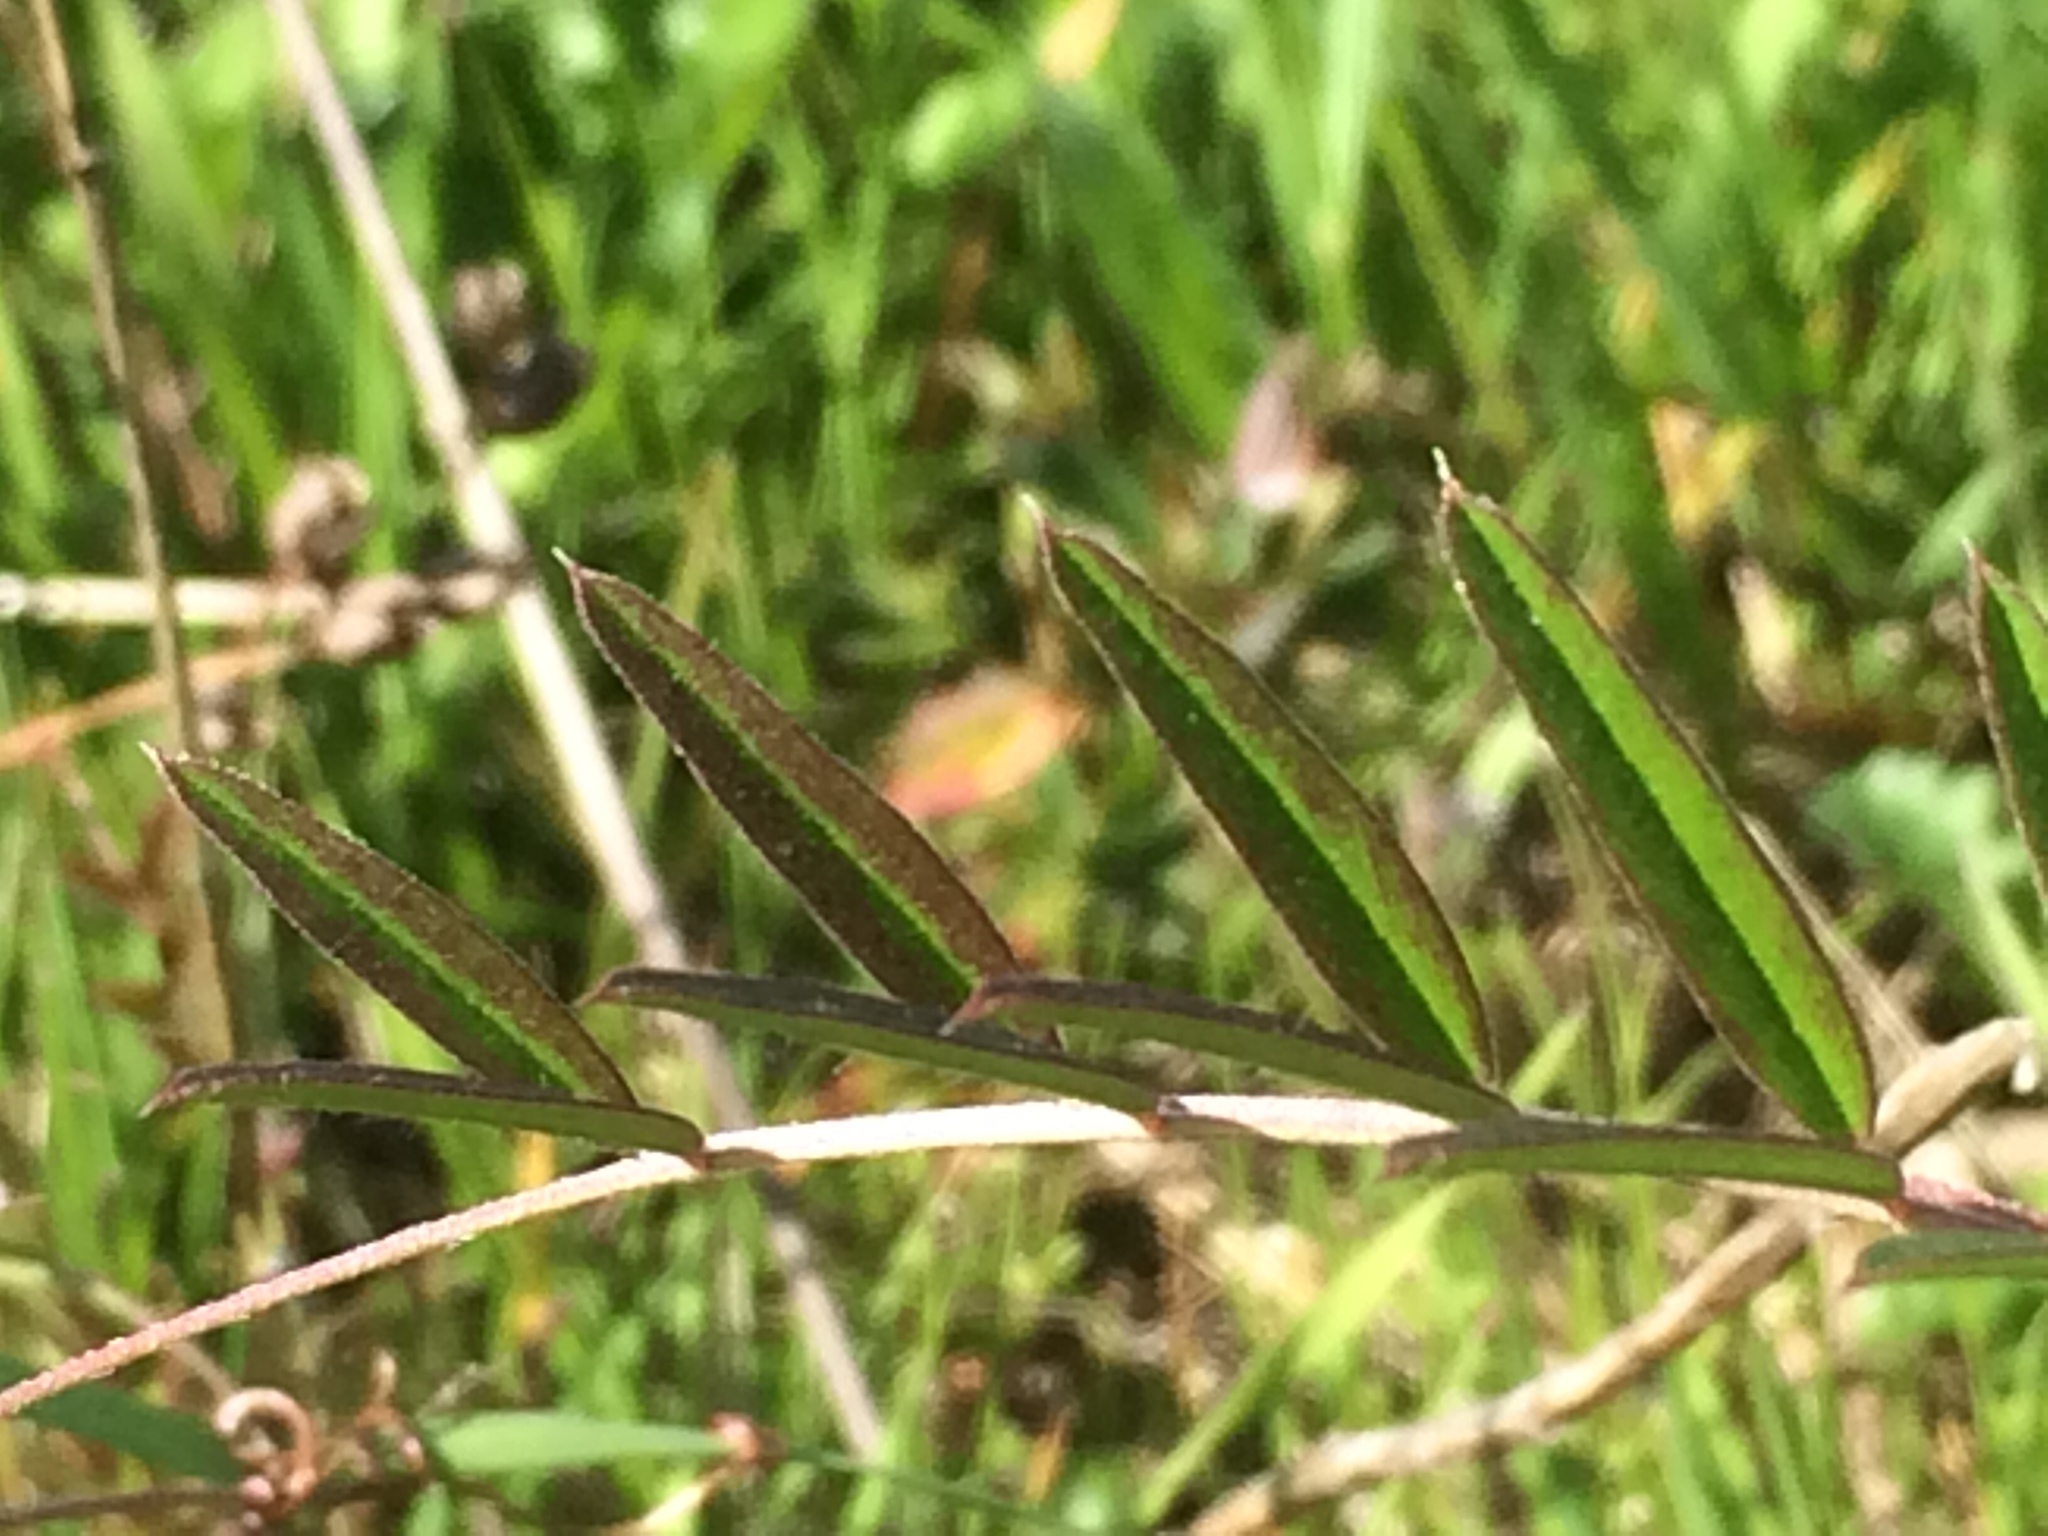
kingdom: Plantae
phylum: Tracheophyta
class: Magnoliopsida
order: Fabales
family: Fabaceae
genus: Vicia
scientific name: Vicia sativa
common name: Garden vetch
